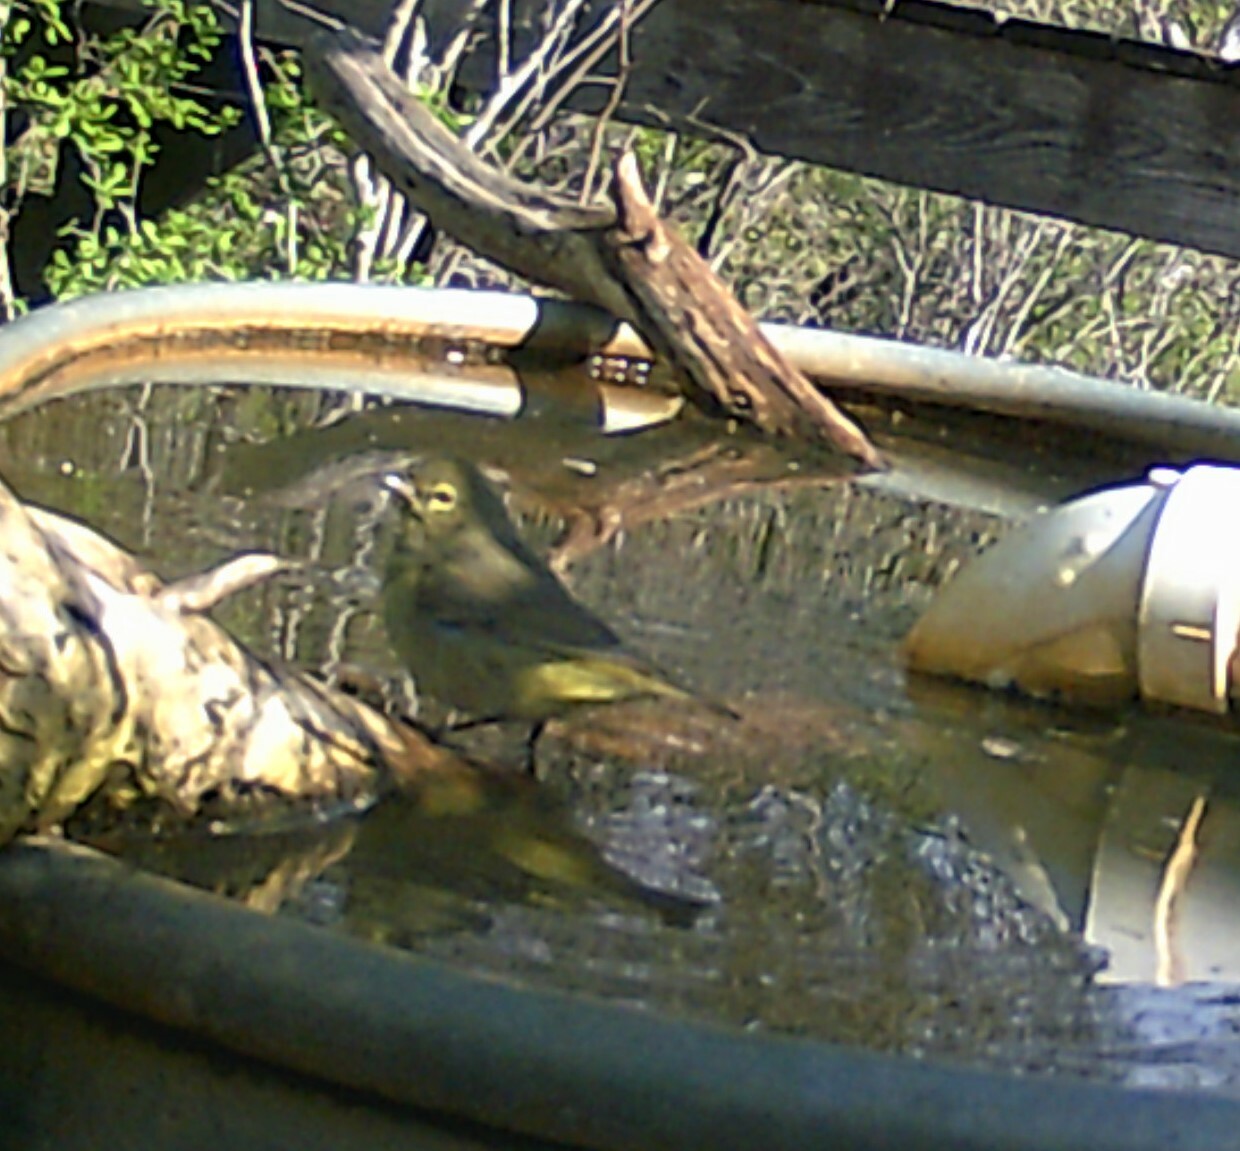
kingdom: Animalia
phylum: Chordata
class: Aves
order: Passeriformes
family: Parulidae
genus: Leiothlypis
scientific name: Leiothlypis celata
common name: Orange-crowned warbler
